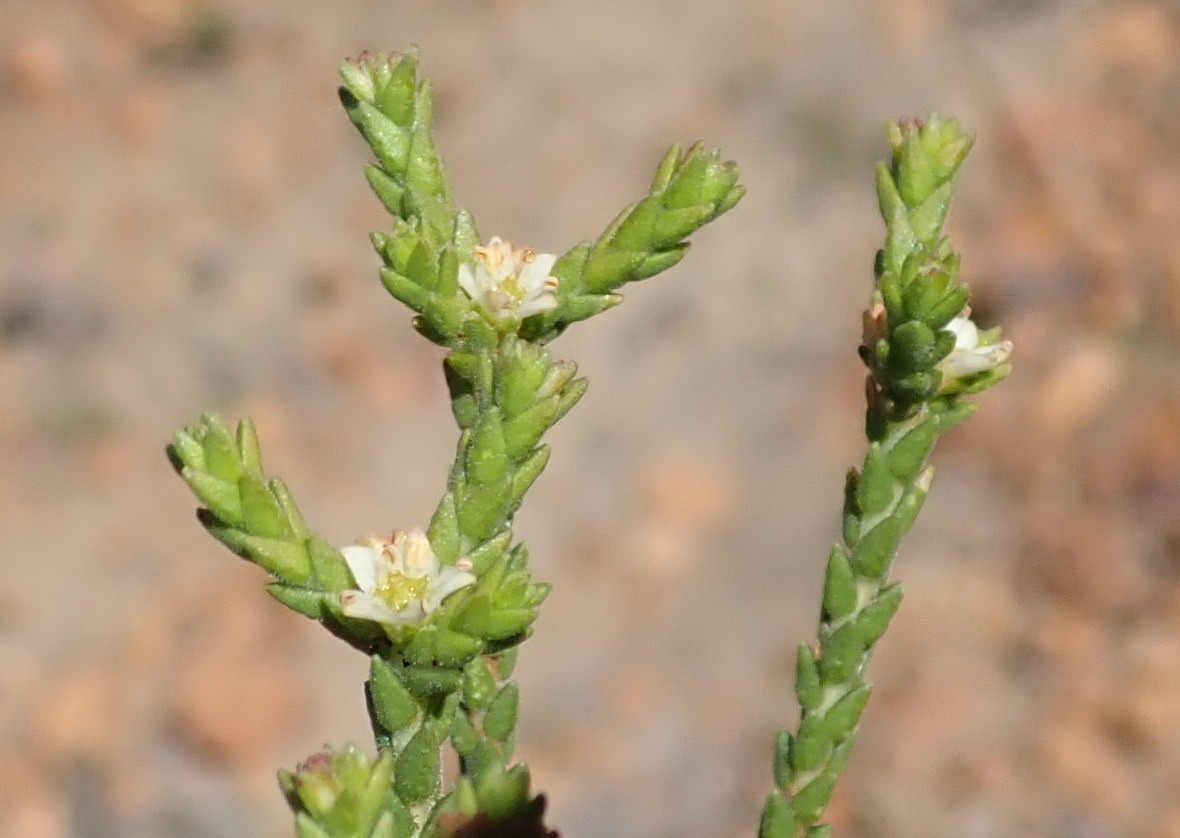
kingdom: Plantae
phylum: Tracheophyta
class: Magnoliopsida
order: Sapindales
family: Rutaceae
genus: Diosma
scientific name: Diosma apetala
